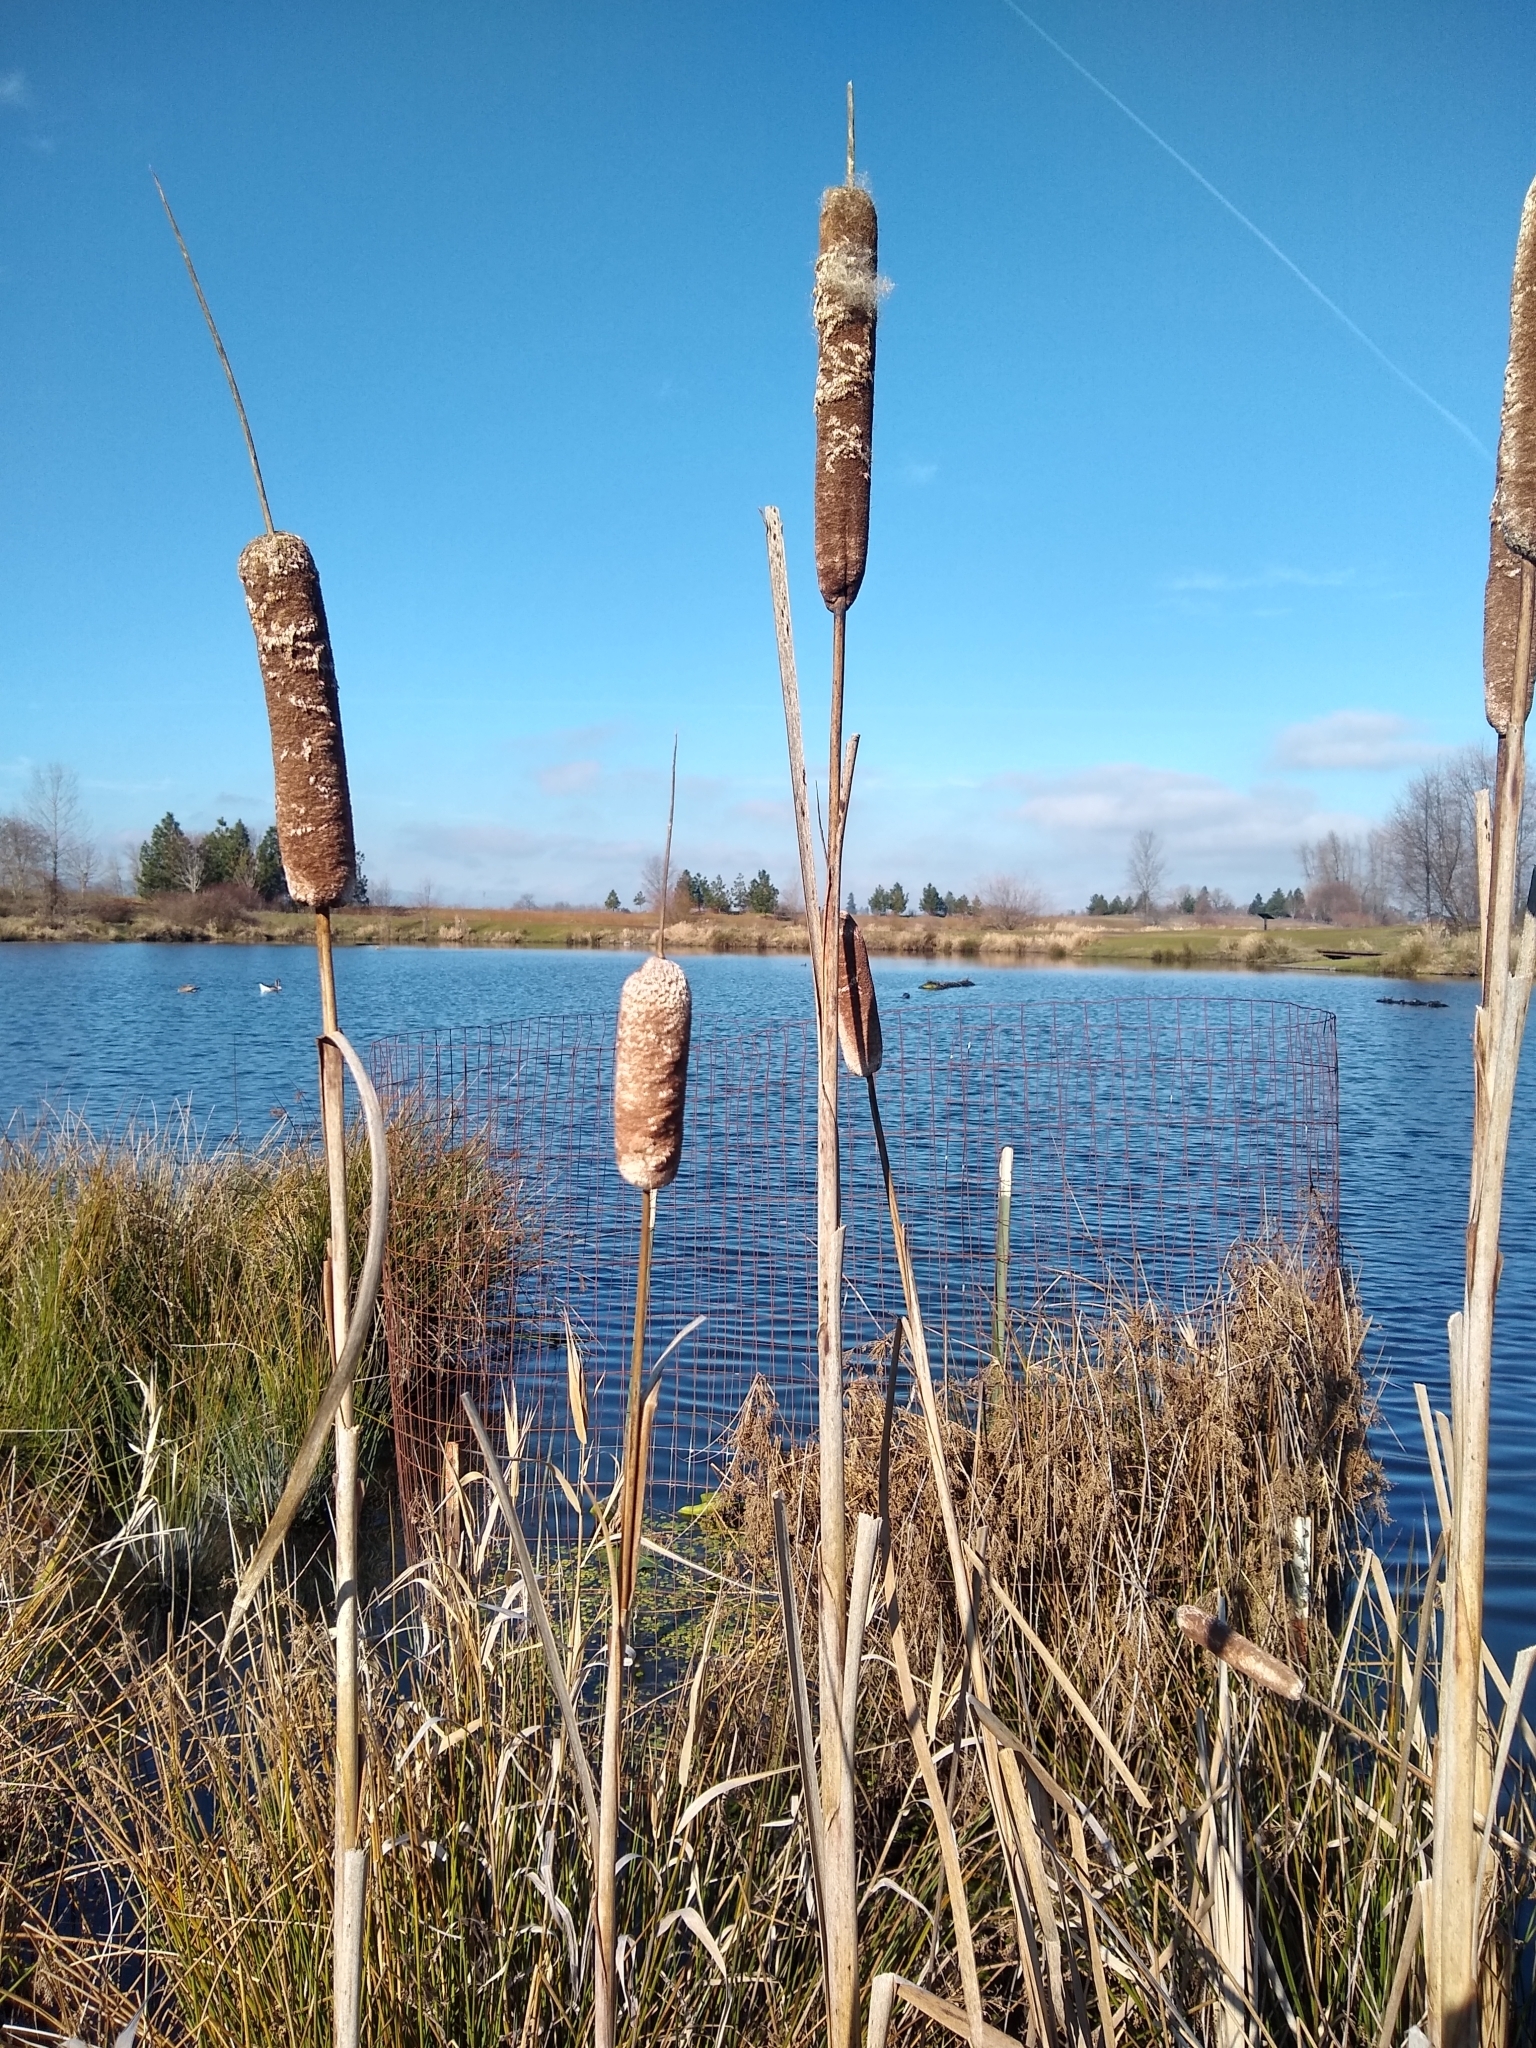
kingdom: Plantae
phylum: Tracheophyta
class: Liliopsida
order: Poales
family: Typhaceae
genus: Typha
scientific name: Typha latifolia
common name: Broadleaf cattail
